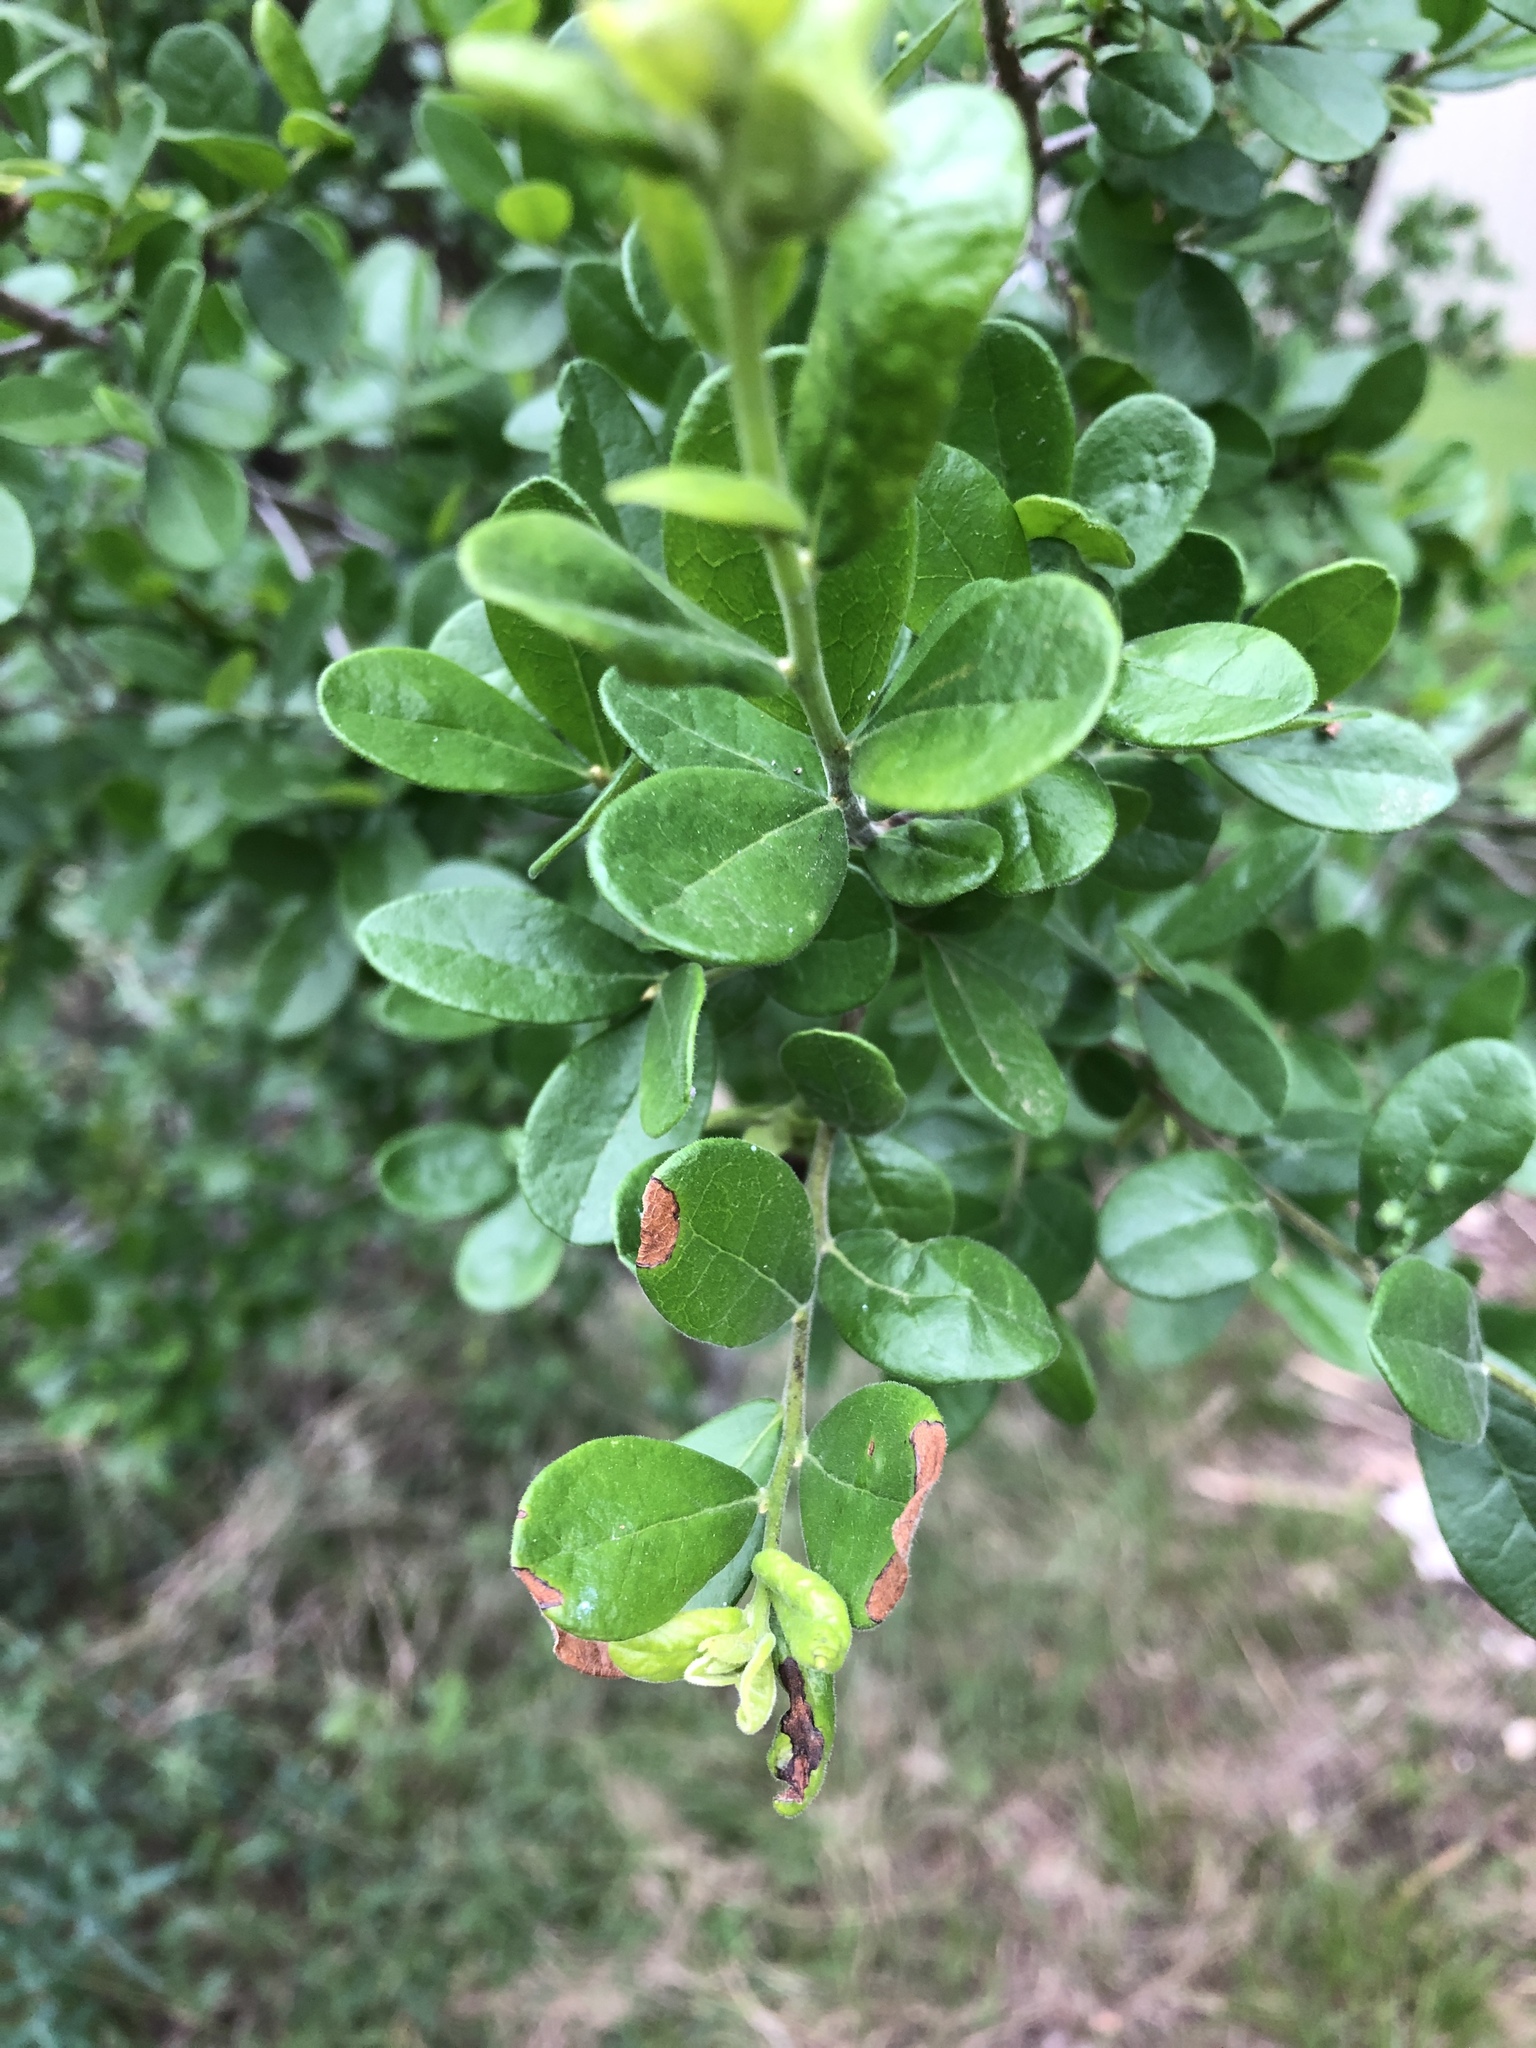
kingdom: Plantae
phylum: Tracheophyta
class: Magnoliopsida
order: Ericales
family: Ebenaceae
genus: Diospyros
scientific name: Diospyros texana
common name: Texas persimmon
